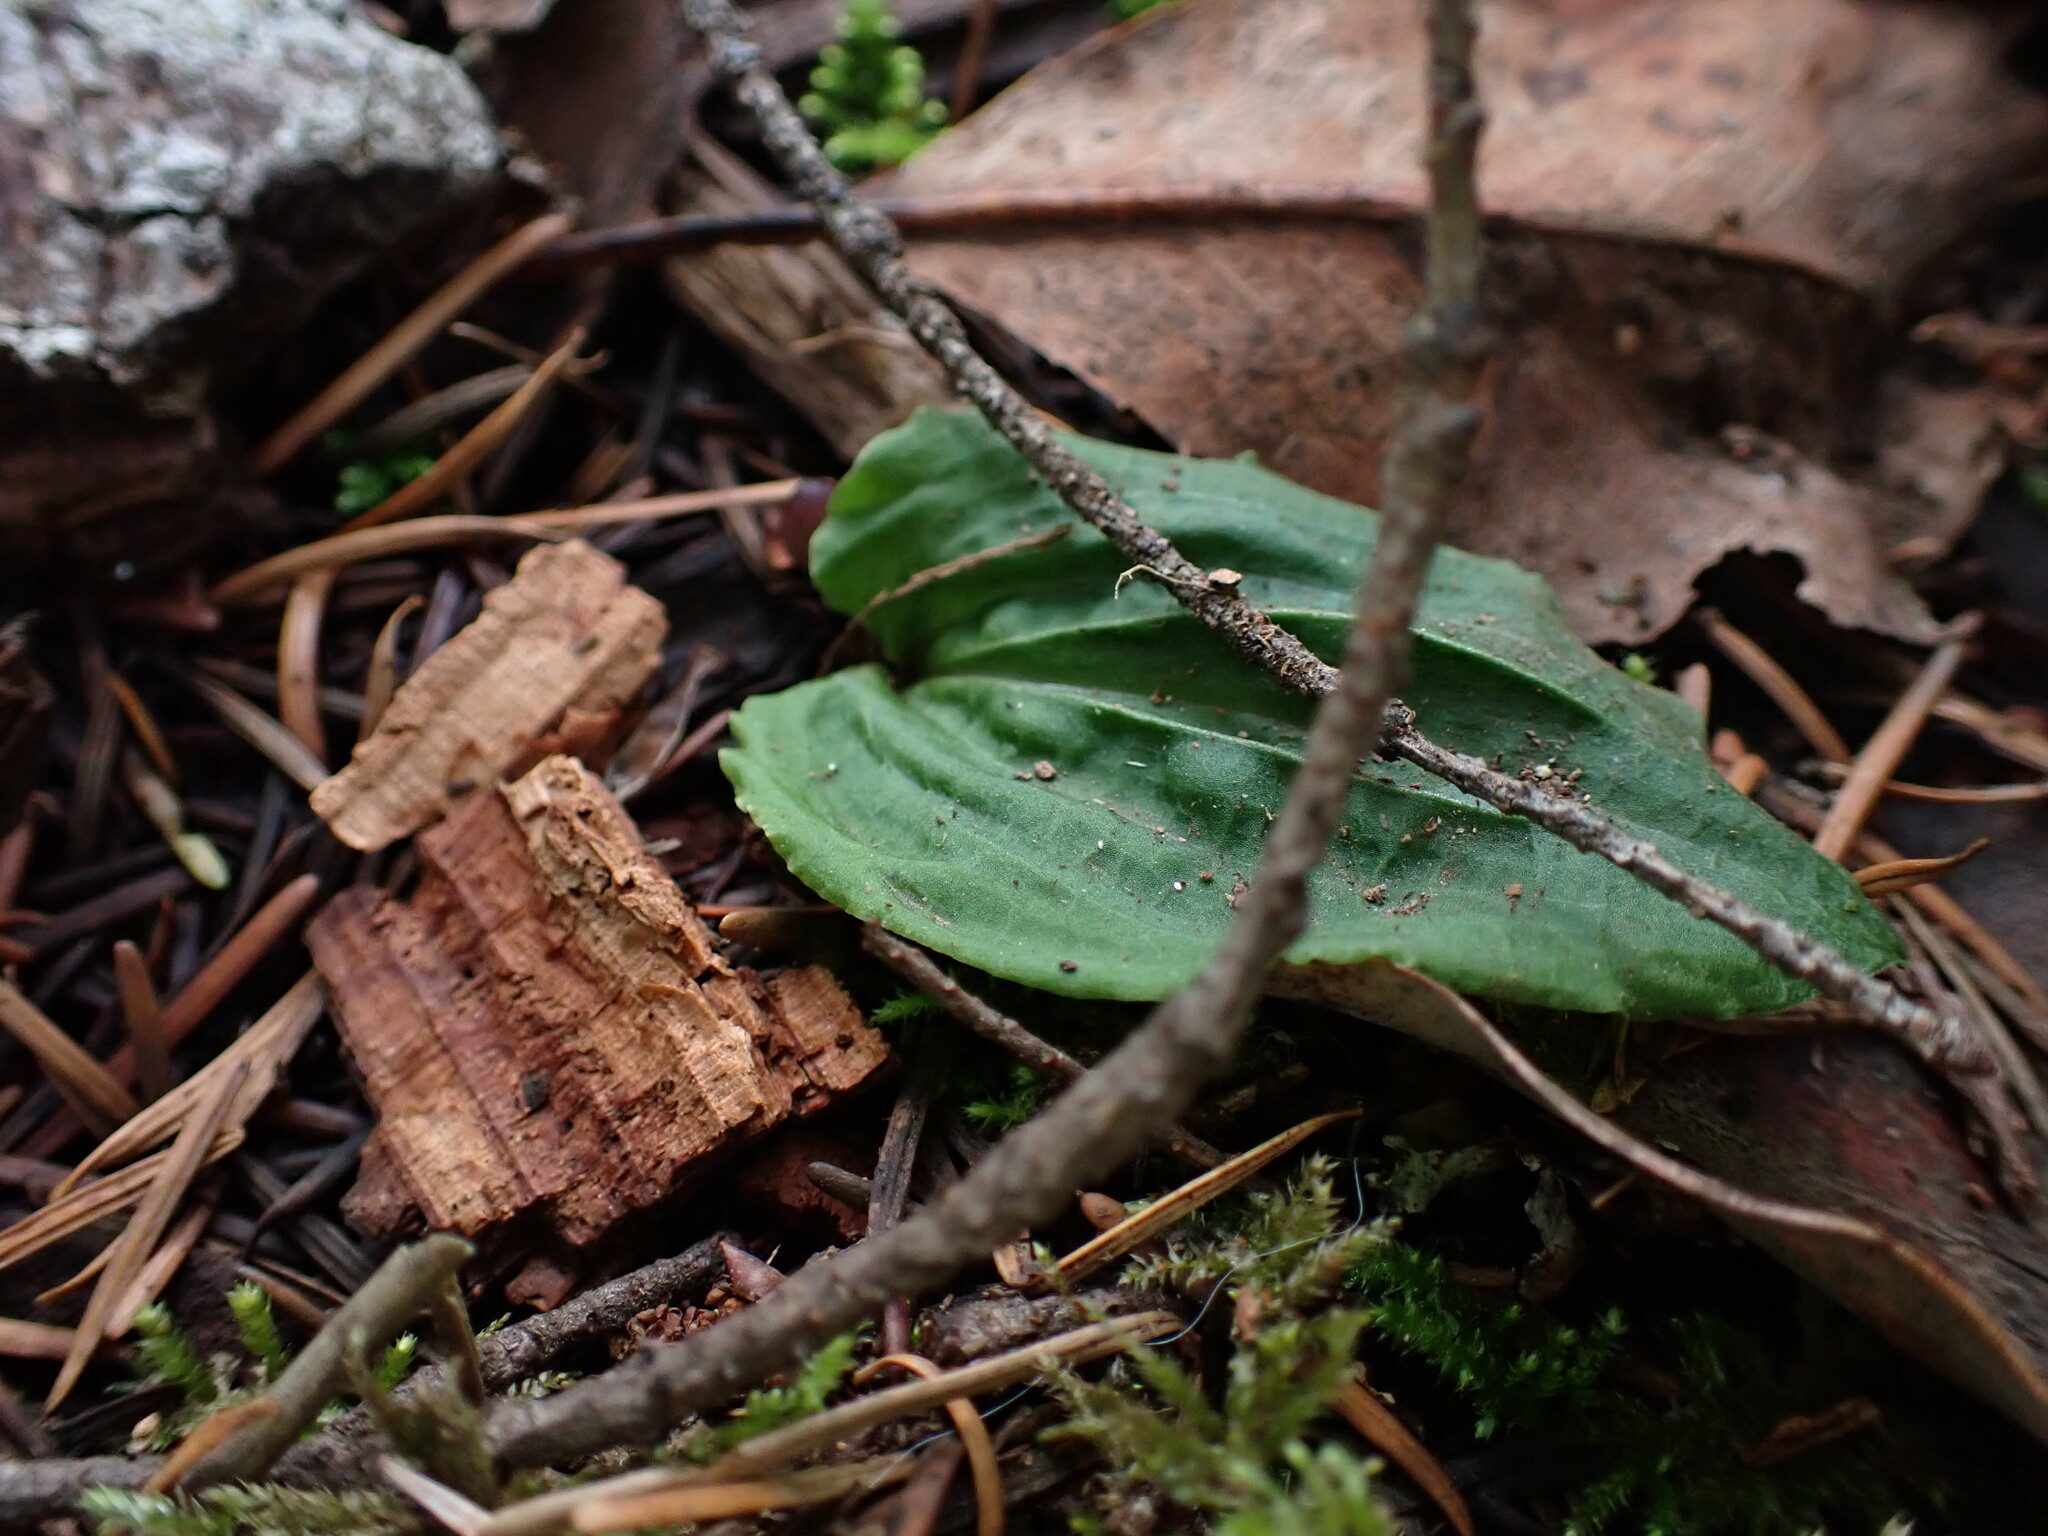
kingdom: Plantae
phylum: Tracheophyta
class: Liliopsida
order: Asparagales
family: Orchidaceae
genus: Calypso
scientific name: Calypso bulbosa
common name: Calypso
